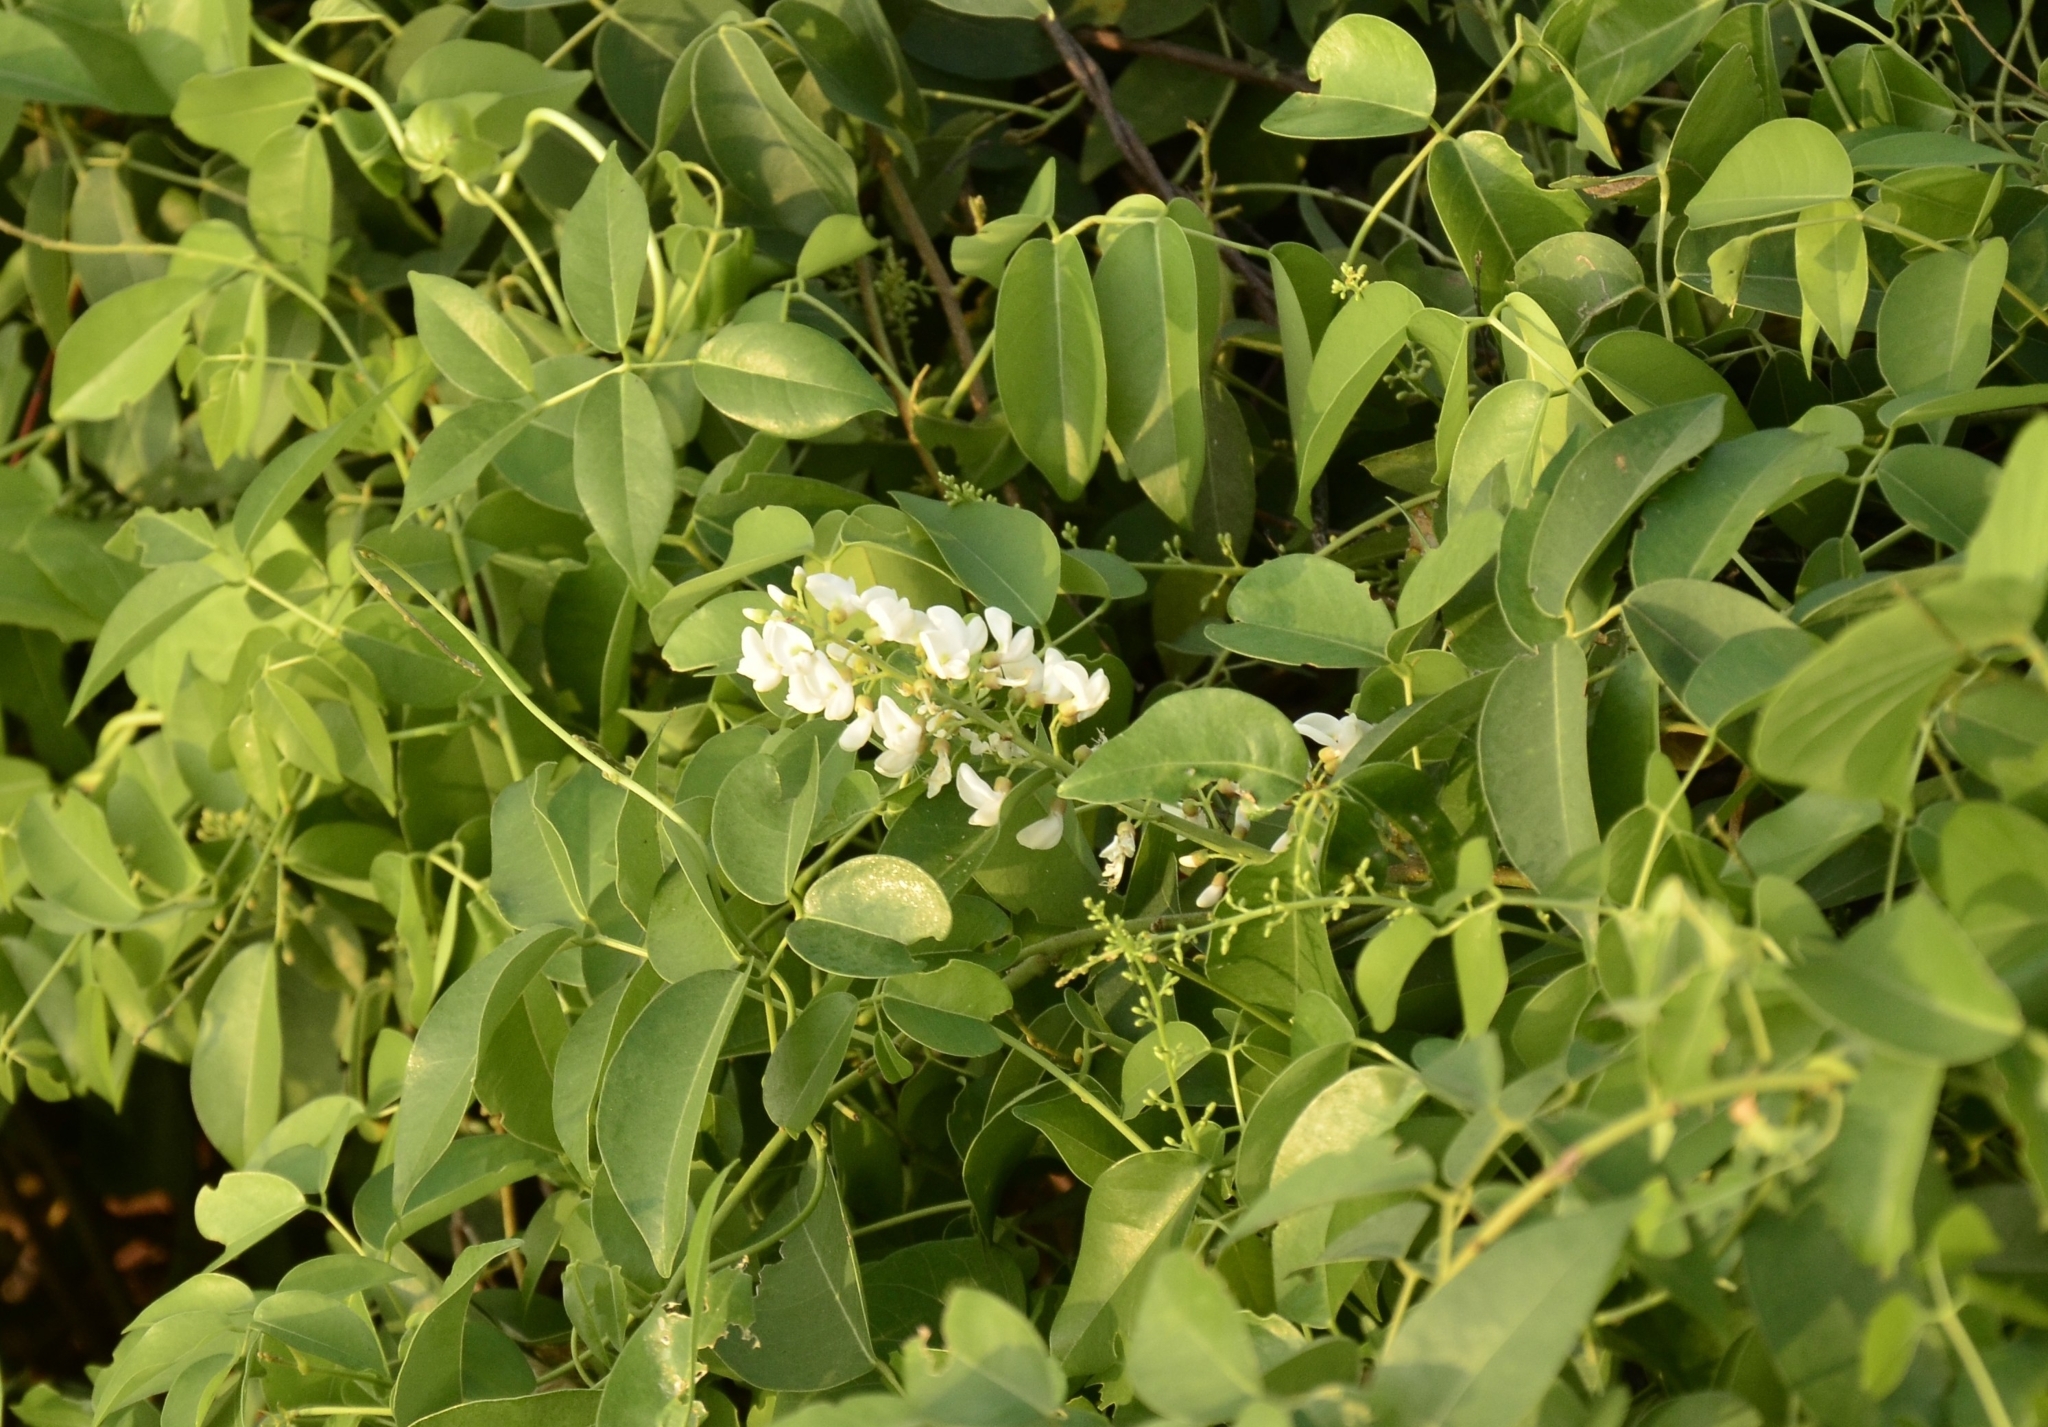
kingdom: Plantae
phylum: Tracheophyta
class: Magnoliopsida
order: Fabales
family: Fabaceae
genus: Derris
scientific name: Derris trifoliata
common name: Three-leaf derris
